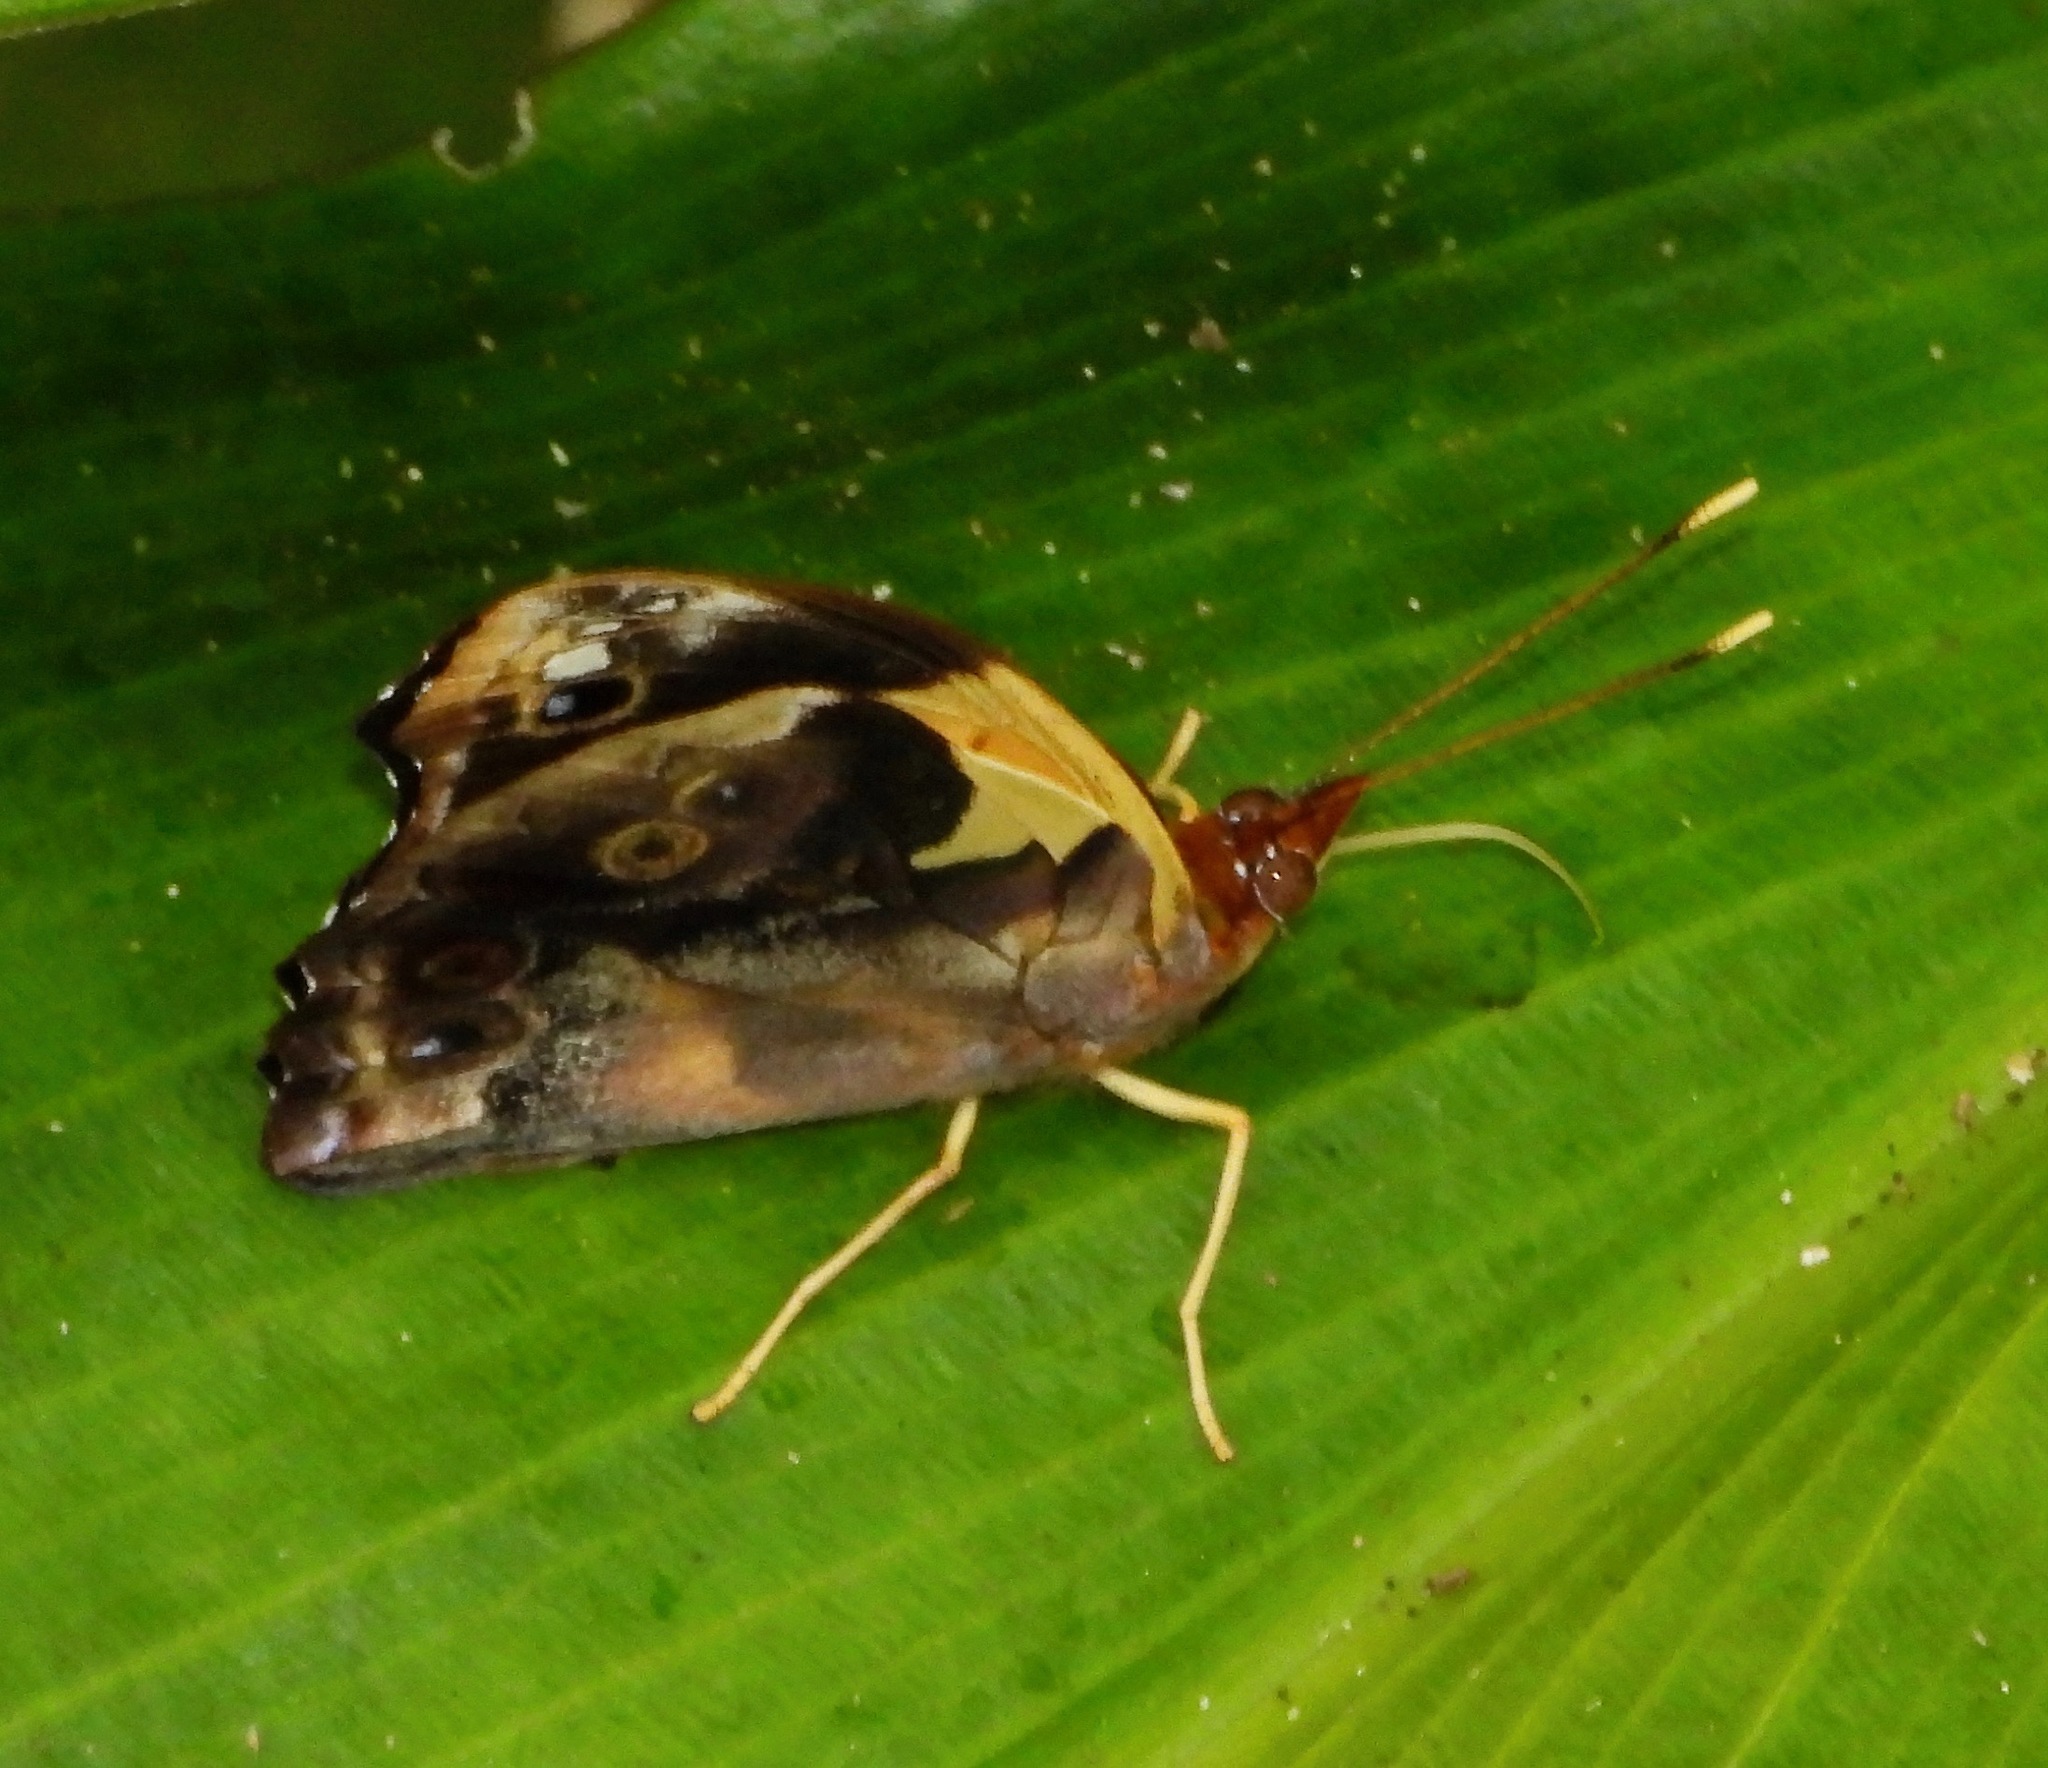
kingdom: Animalia
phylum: Arthropoda
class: Insecta
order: Lepidoptera
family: Nymphalidae
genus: Epiphile
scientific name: Epiphile lampethusa
